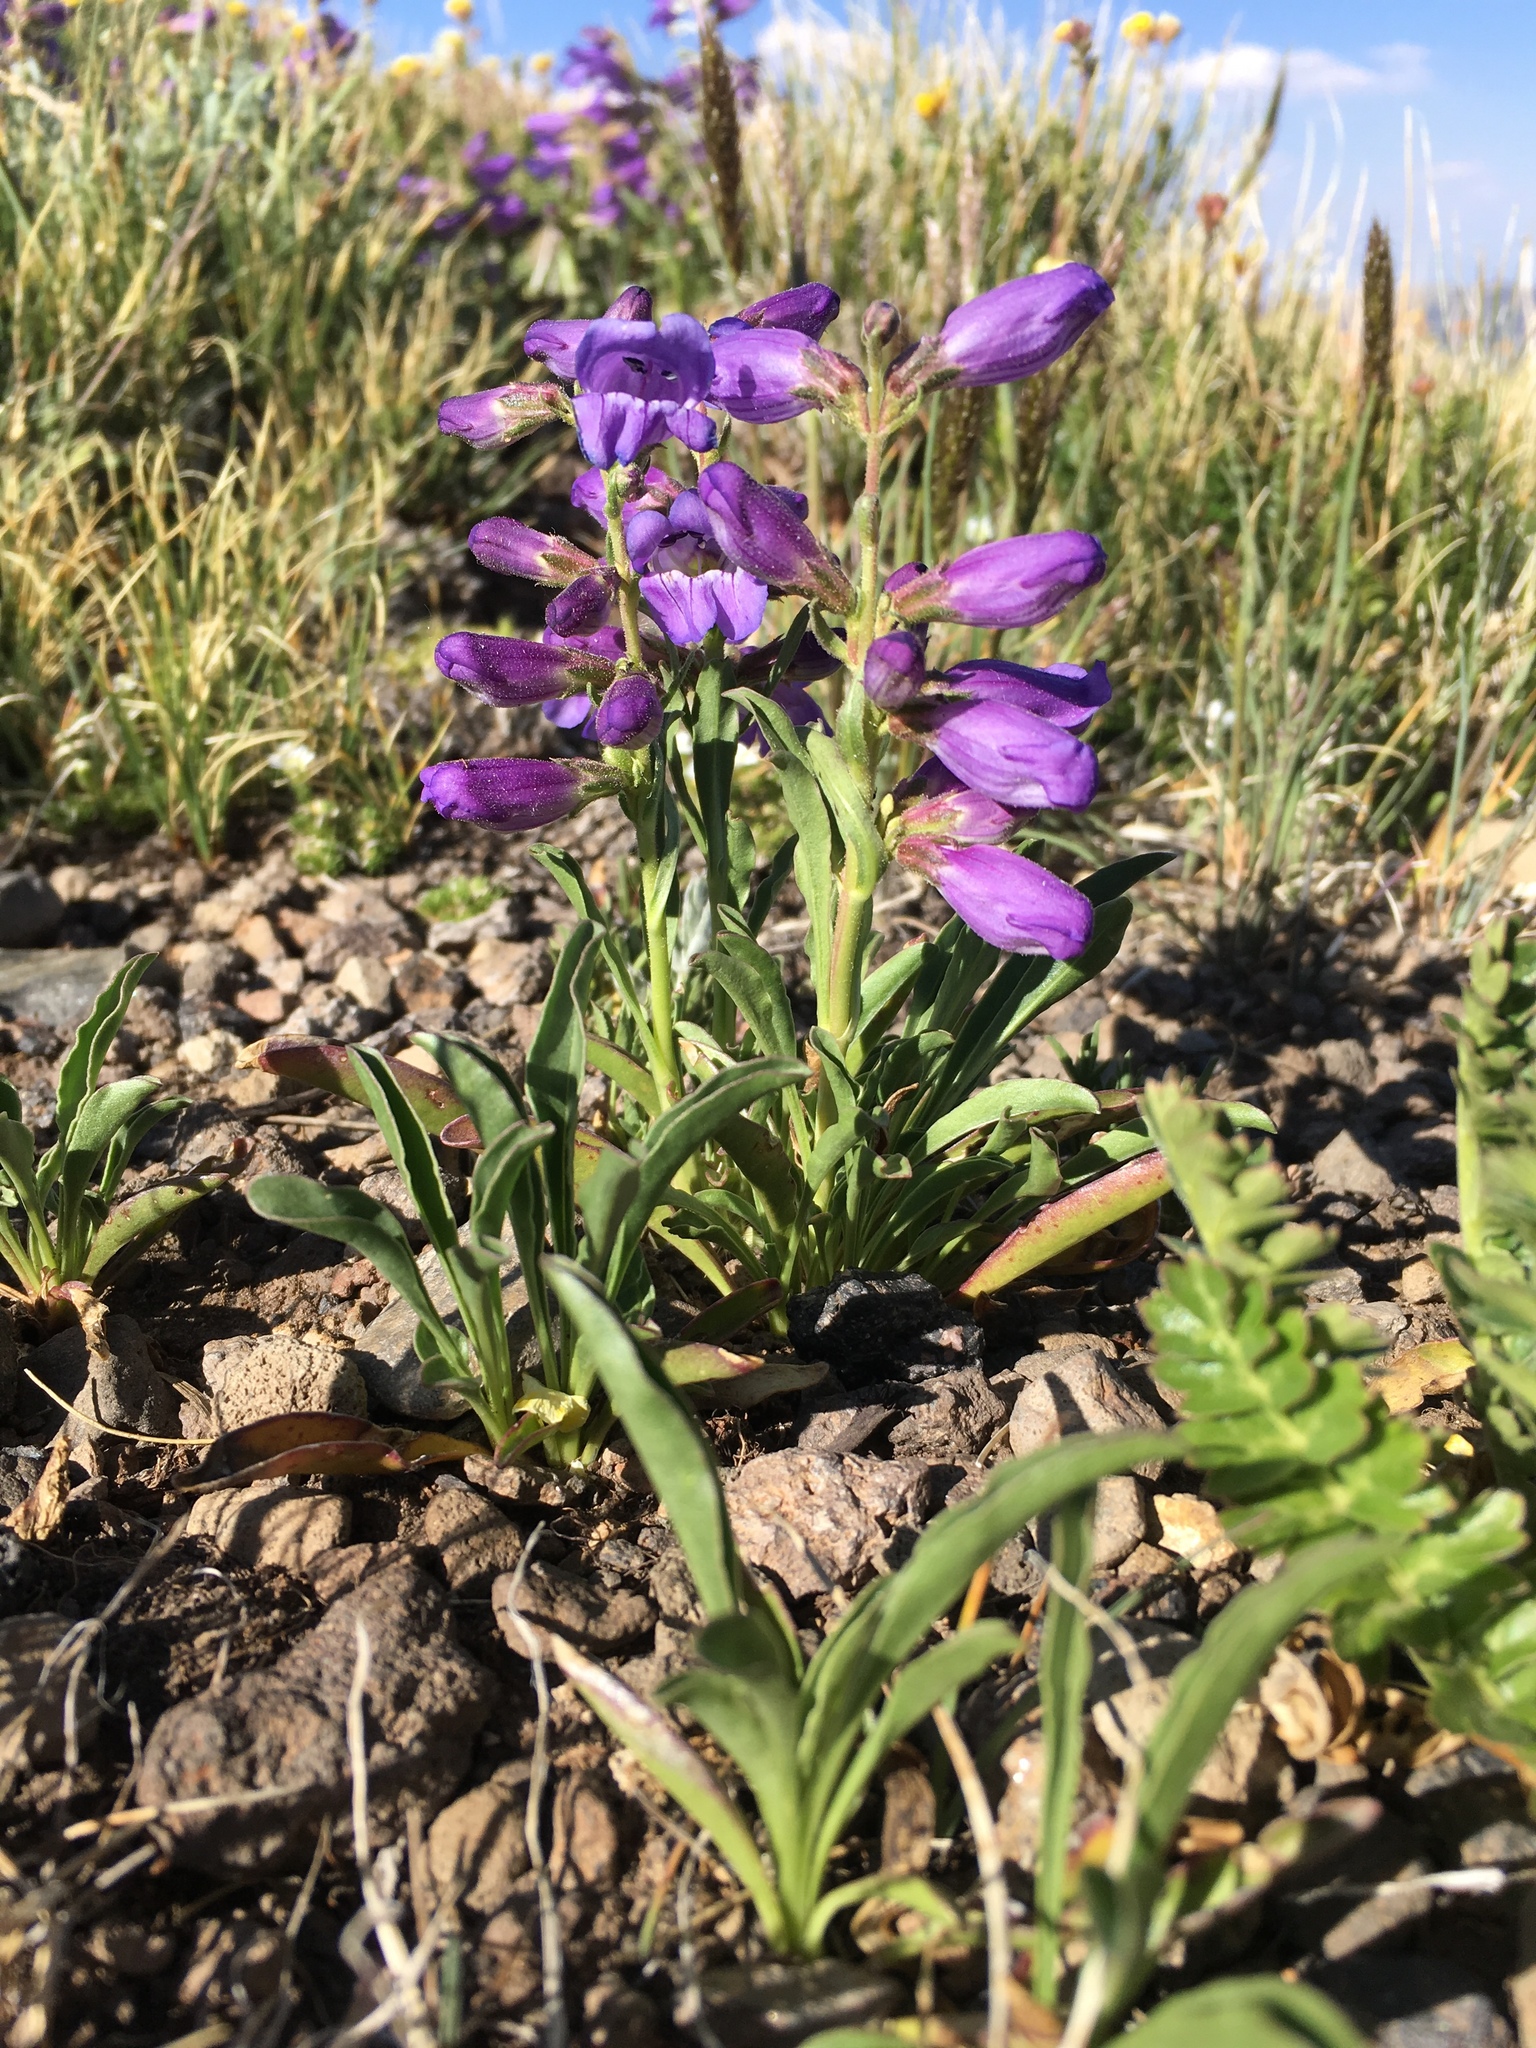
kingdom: Plantae
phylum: Tracheophyta
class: Magnoliopsida
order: Lamiales
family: Plantaginaceae
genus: Penstemon
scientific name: Penstemon hallii
